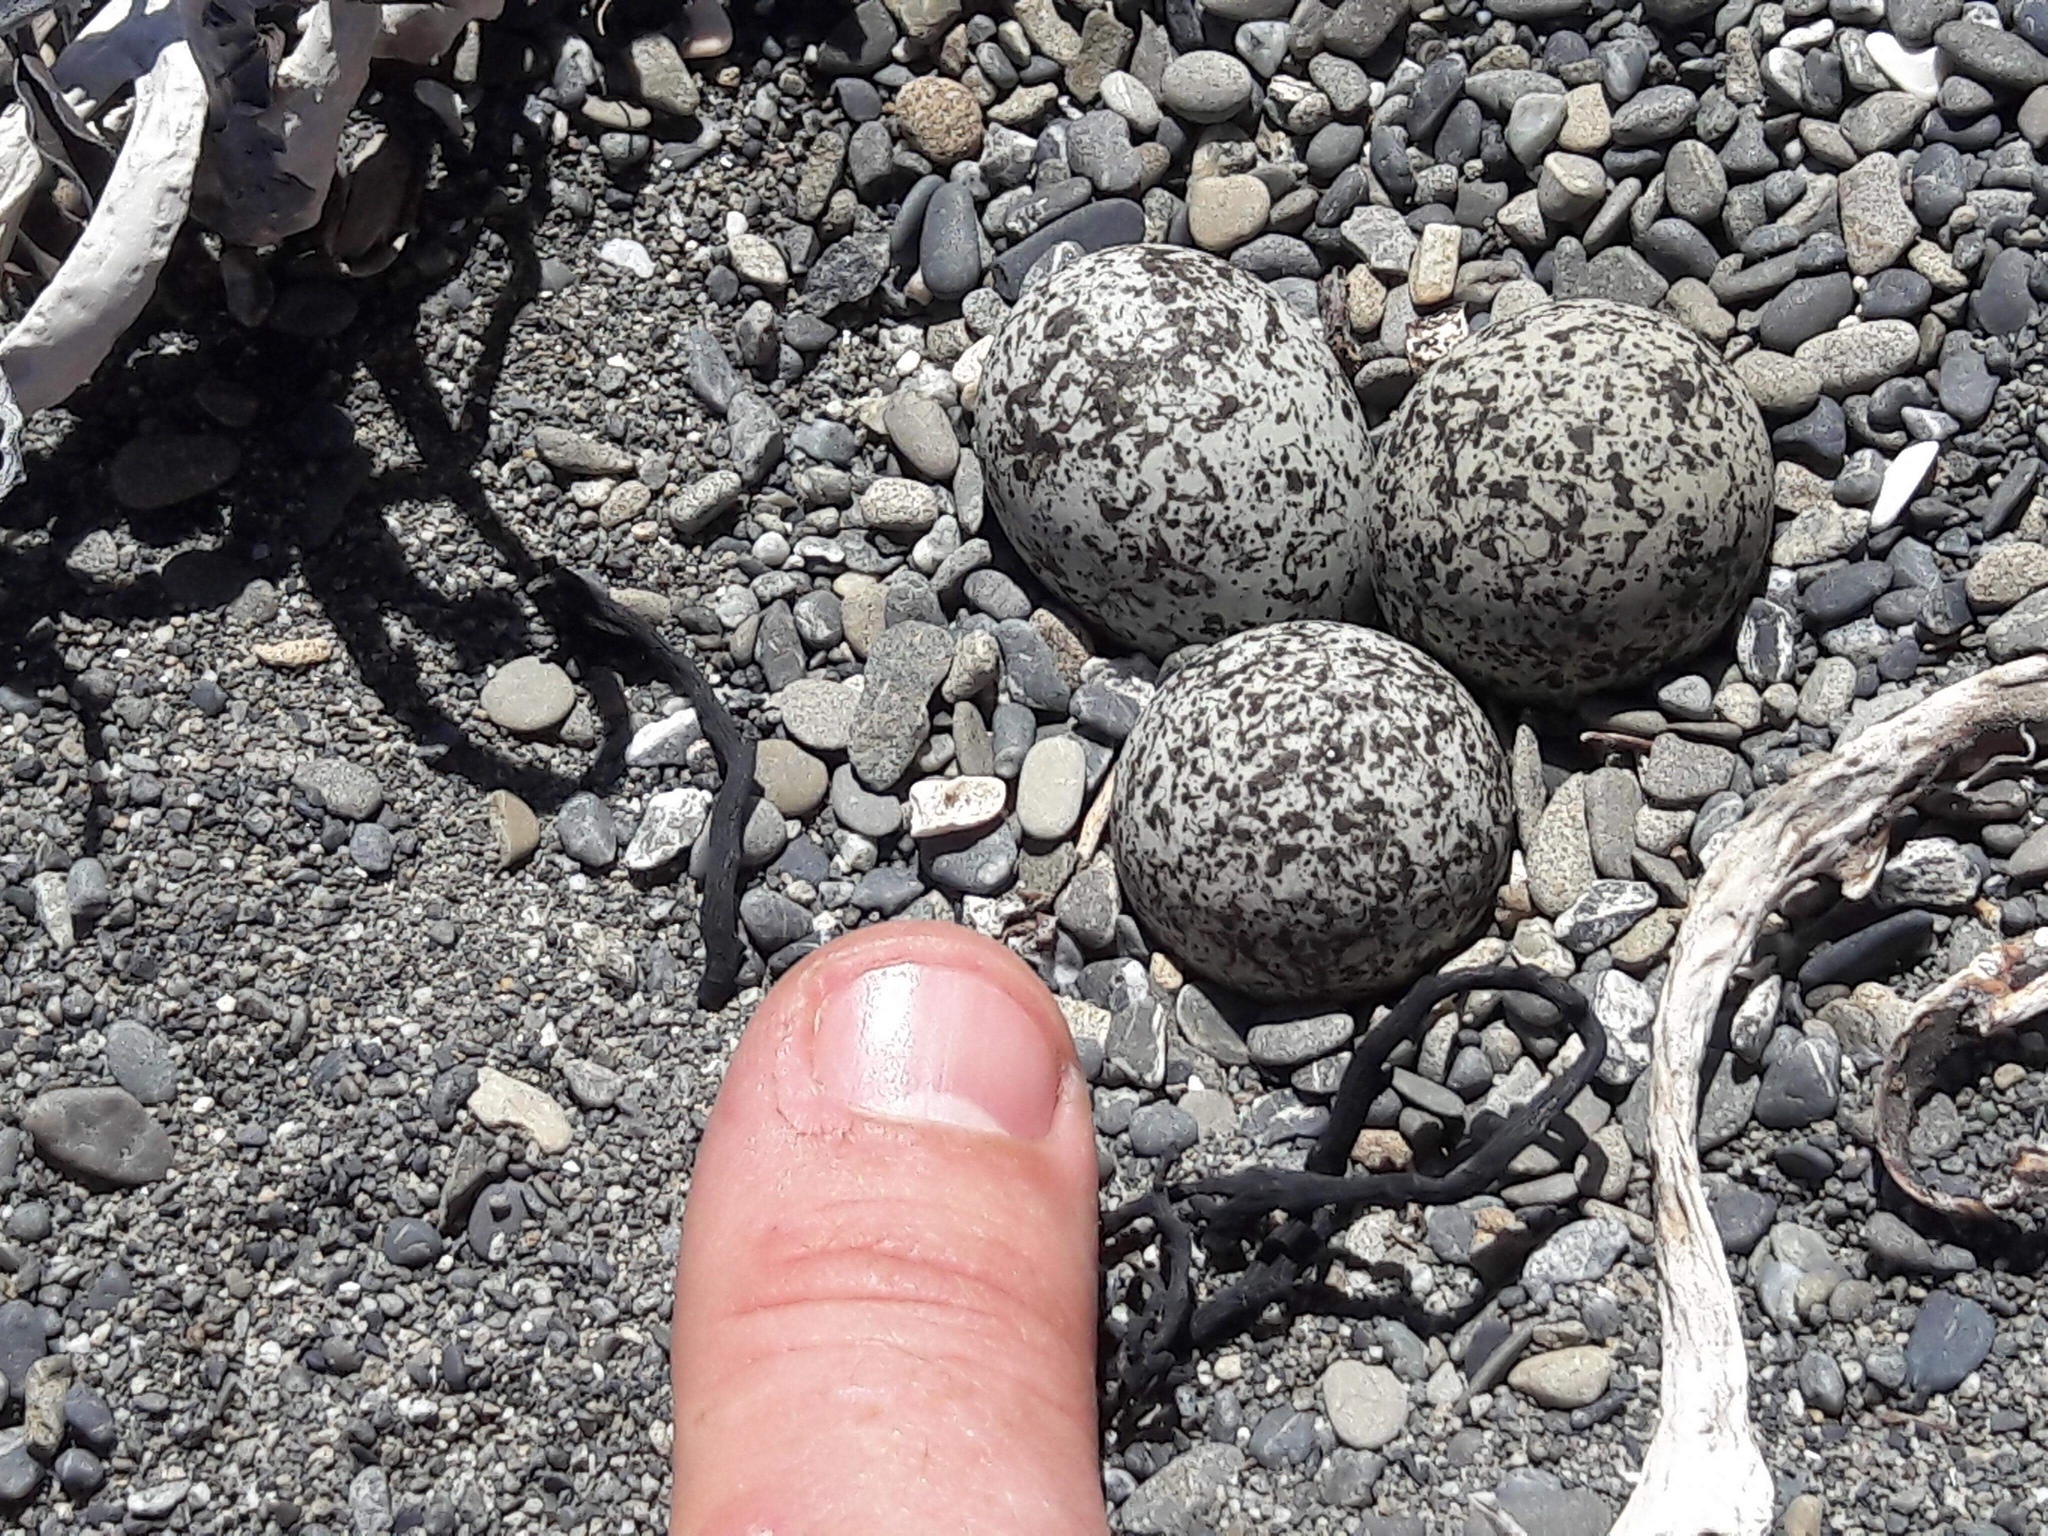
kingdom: Animalia
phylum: Chordata
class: Aves
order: Charadriiformes
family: Charadriidae
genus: Anarhynchus
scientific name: Anarhynchus
